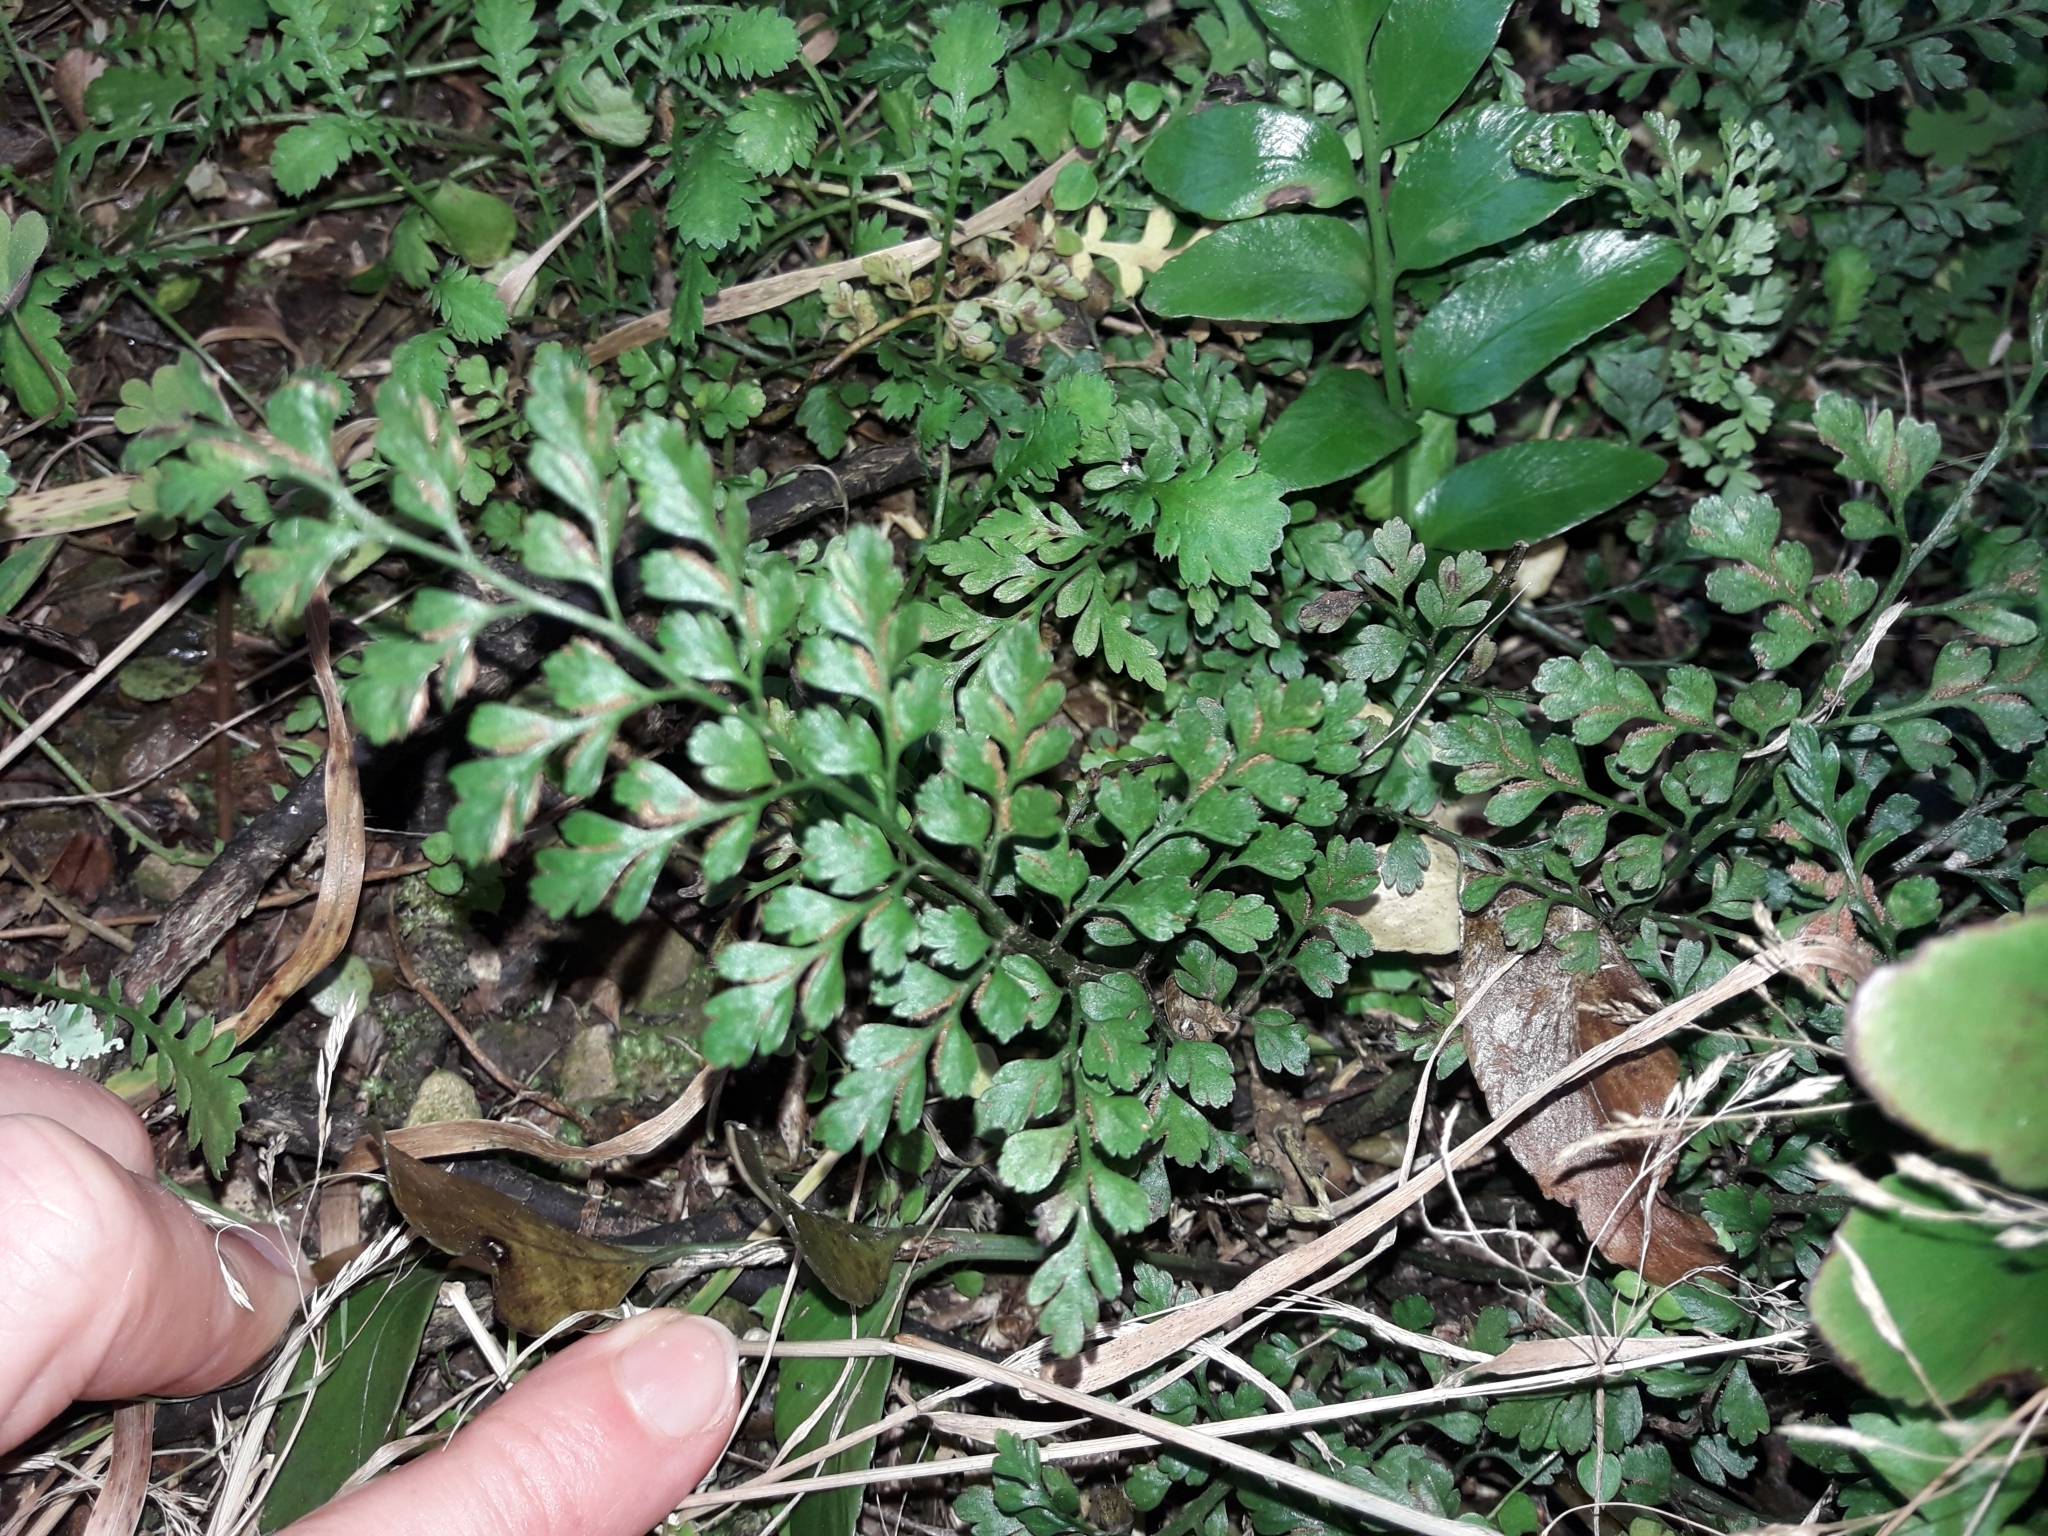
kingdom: Plantae
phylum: Tracheophyta
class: Polypodiopsida
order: Polypodiales
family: Aspleniaceae
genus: Asplenium
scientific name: Asplenium hookerianum
